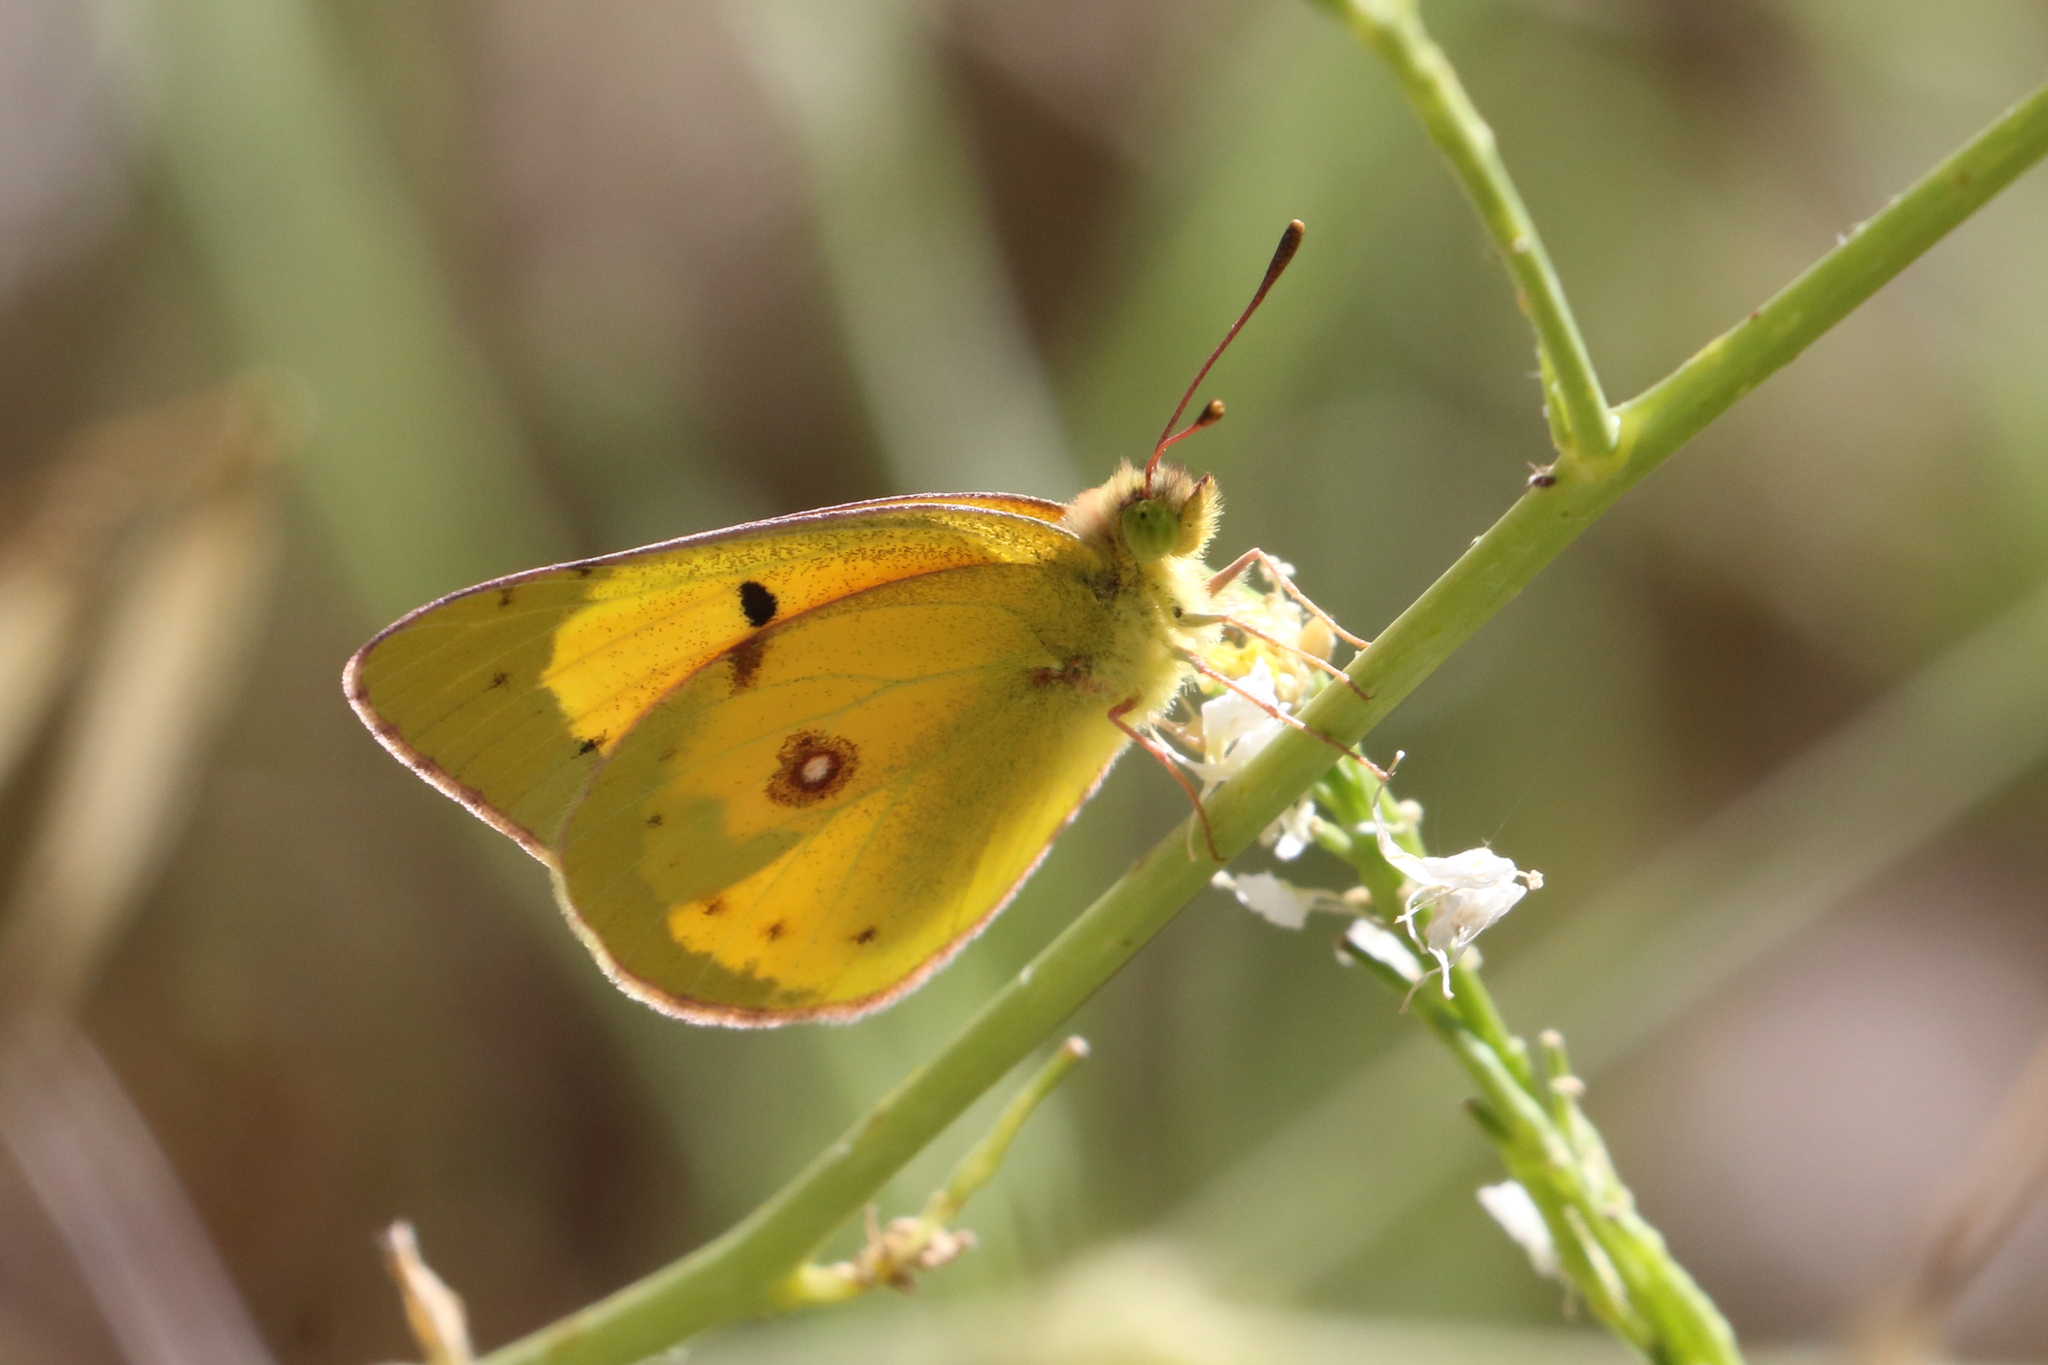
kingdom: Animalia
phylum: Arthropoda
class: Insecta
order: Lepidoptera
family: Pieridae
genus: Colias
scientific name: Colias eurytheme
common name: Alfalfa butterfly
